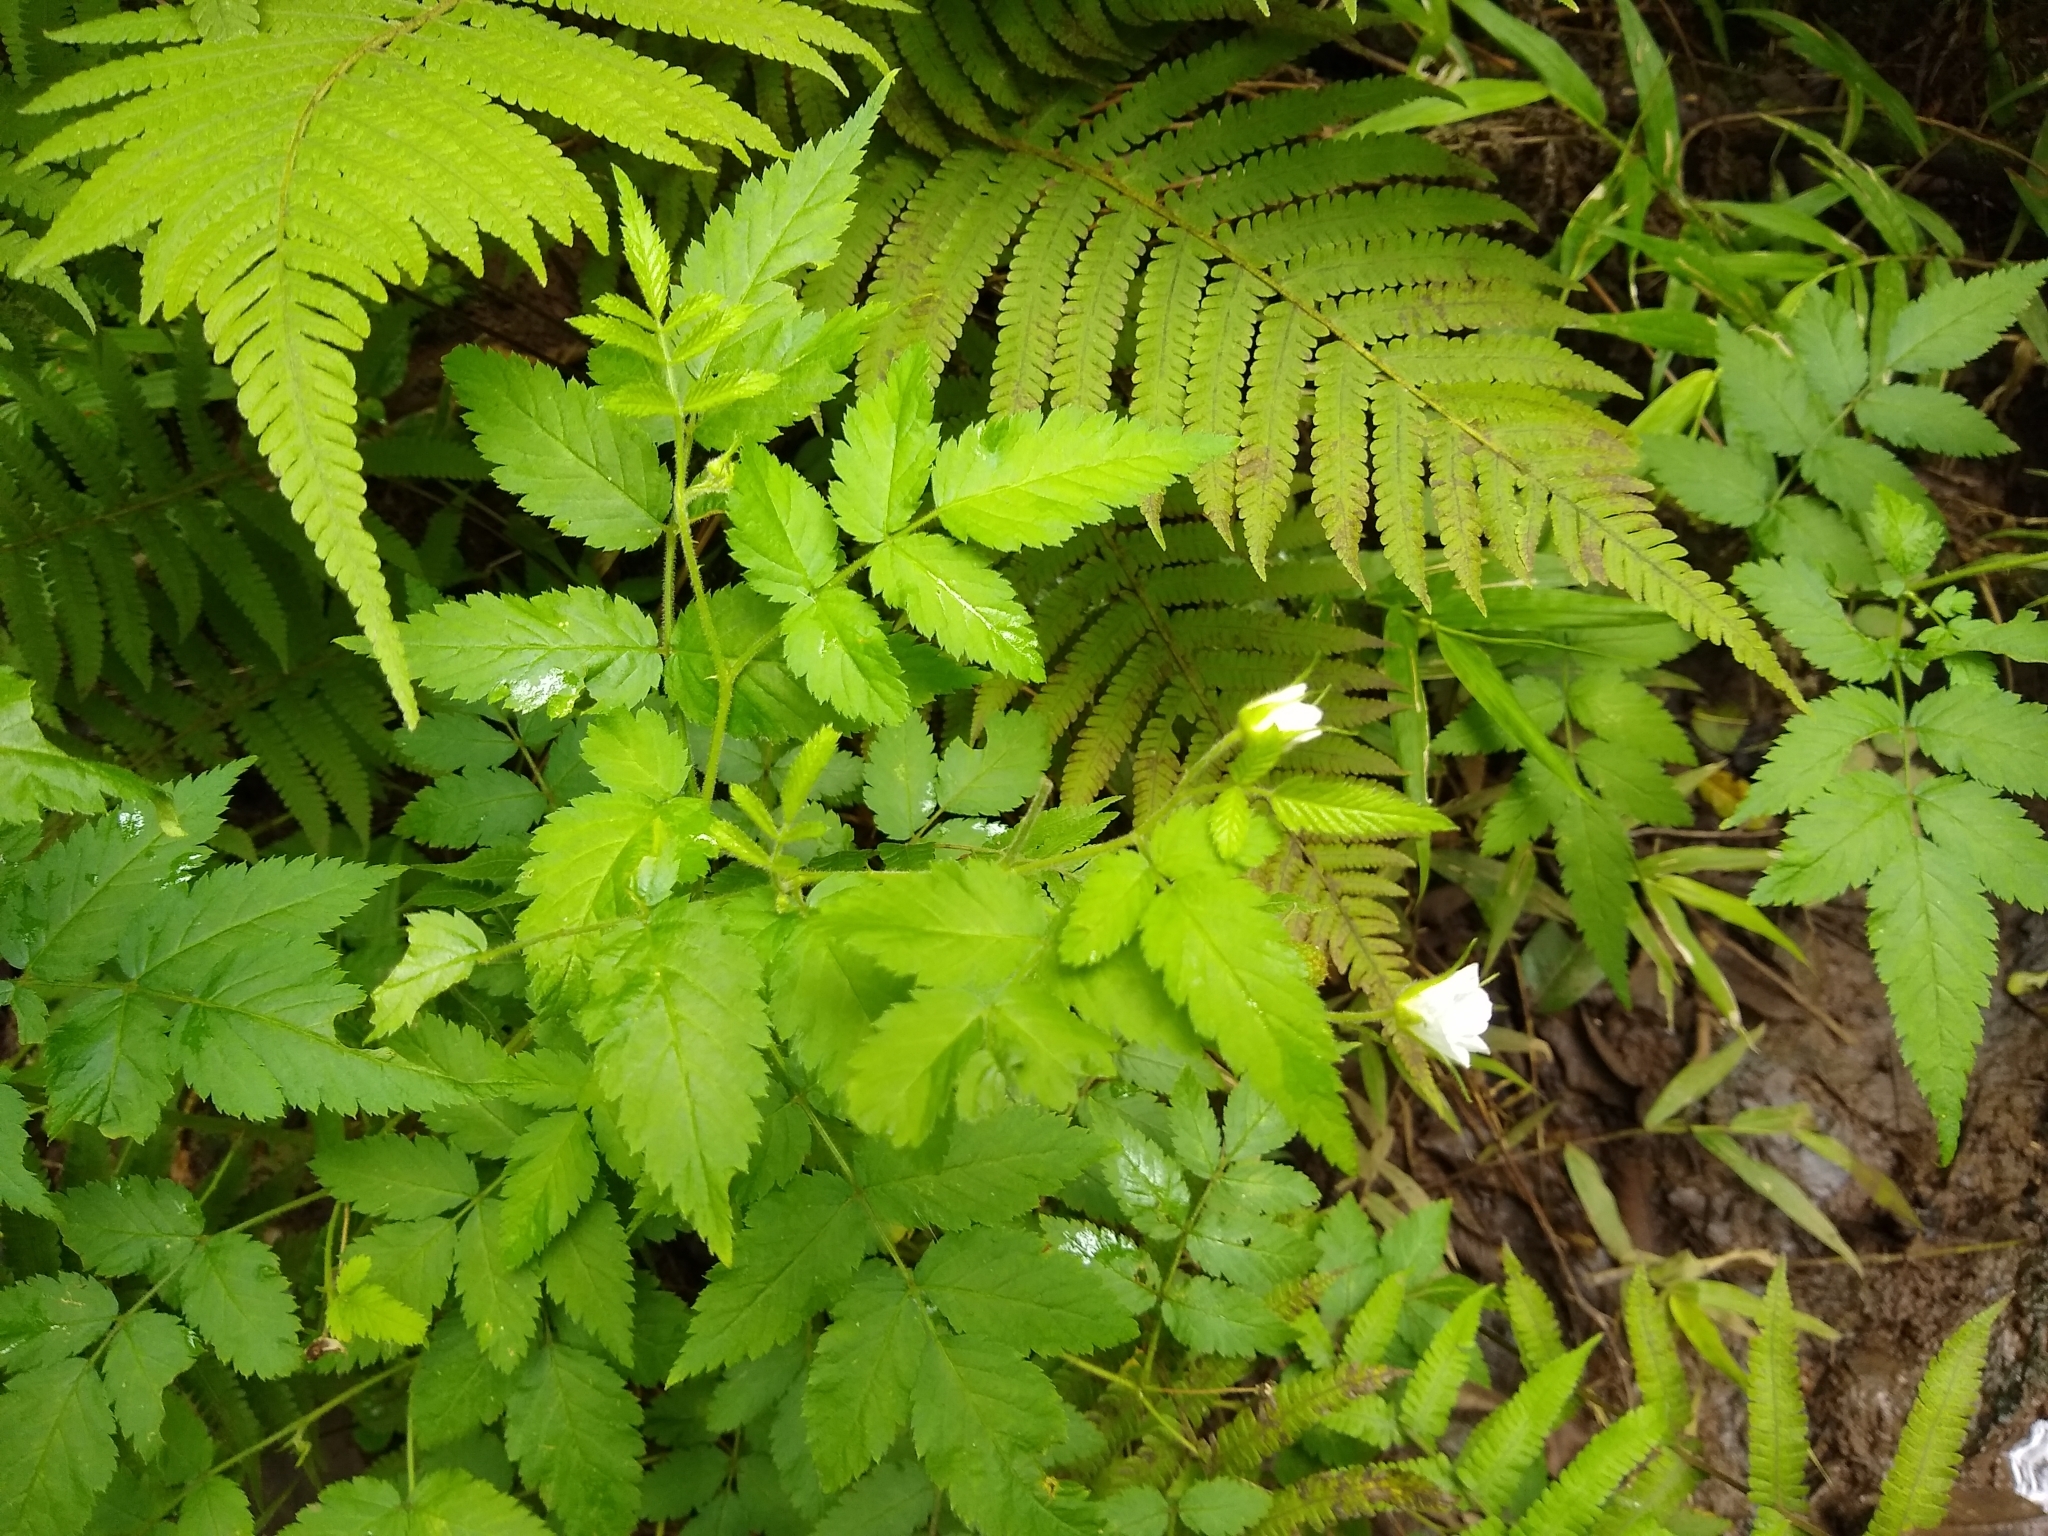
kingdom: Plantae
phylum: Tracheophyta
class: Magnoliopsida
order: Rosales
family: Rosaceae
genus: Rubus
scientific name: Rubus rosifolius
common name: Roseleaf raspberry
